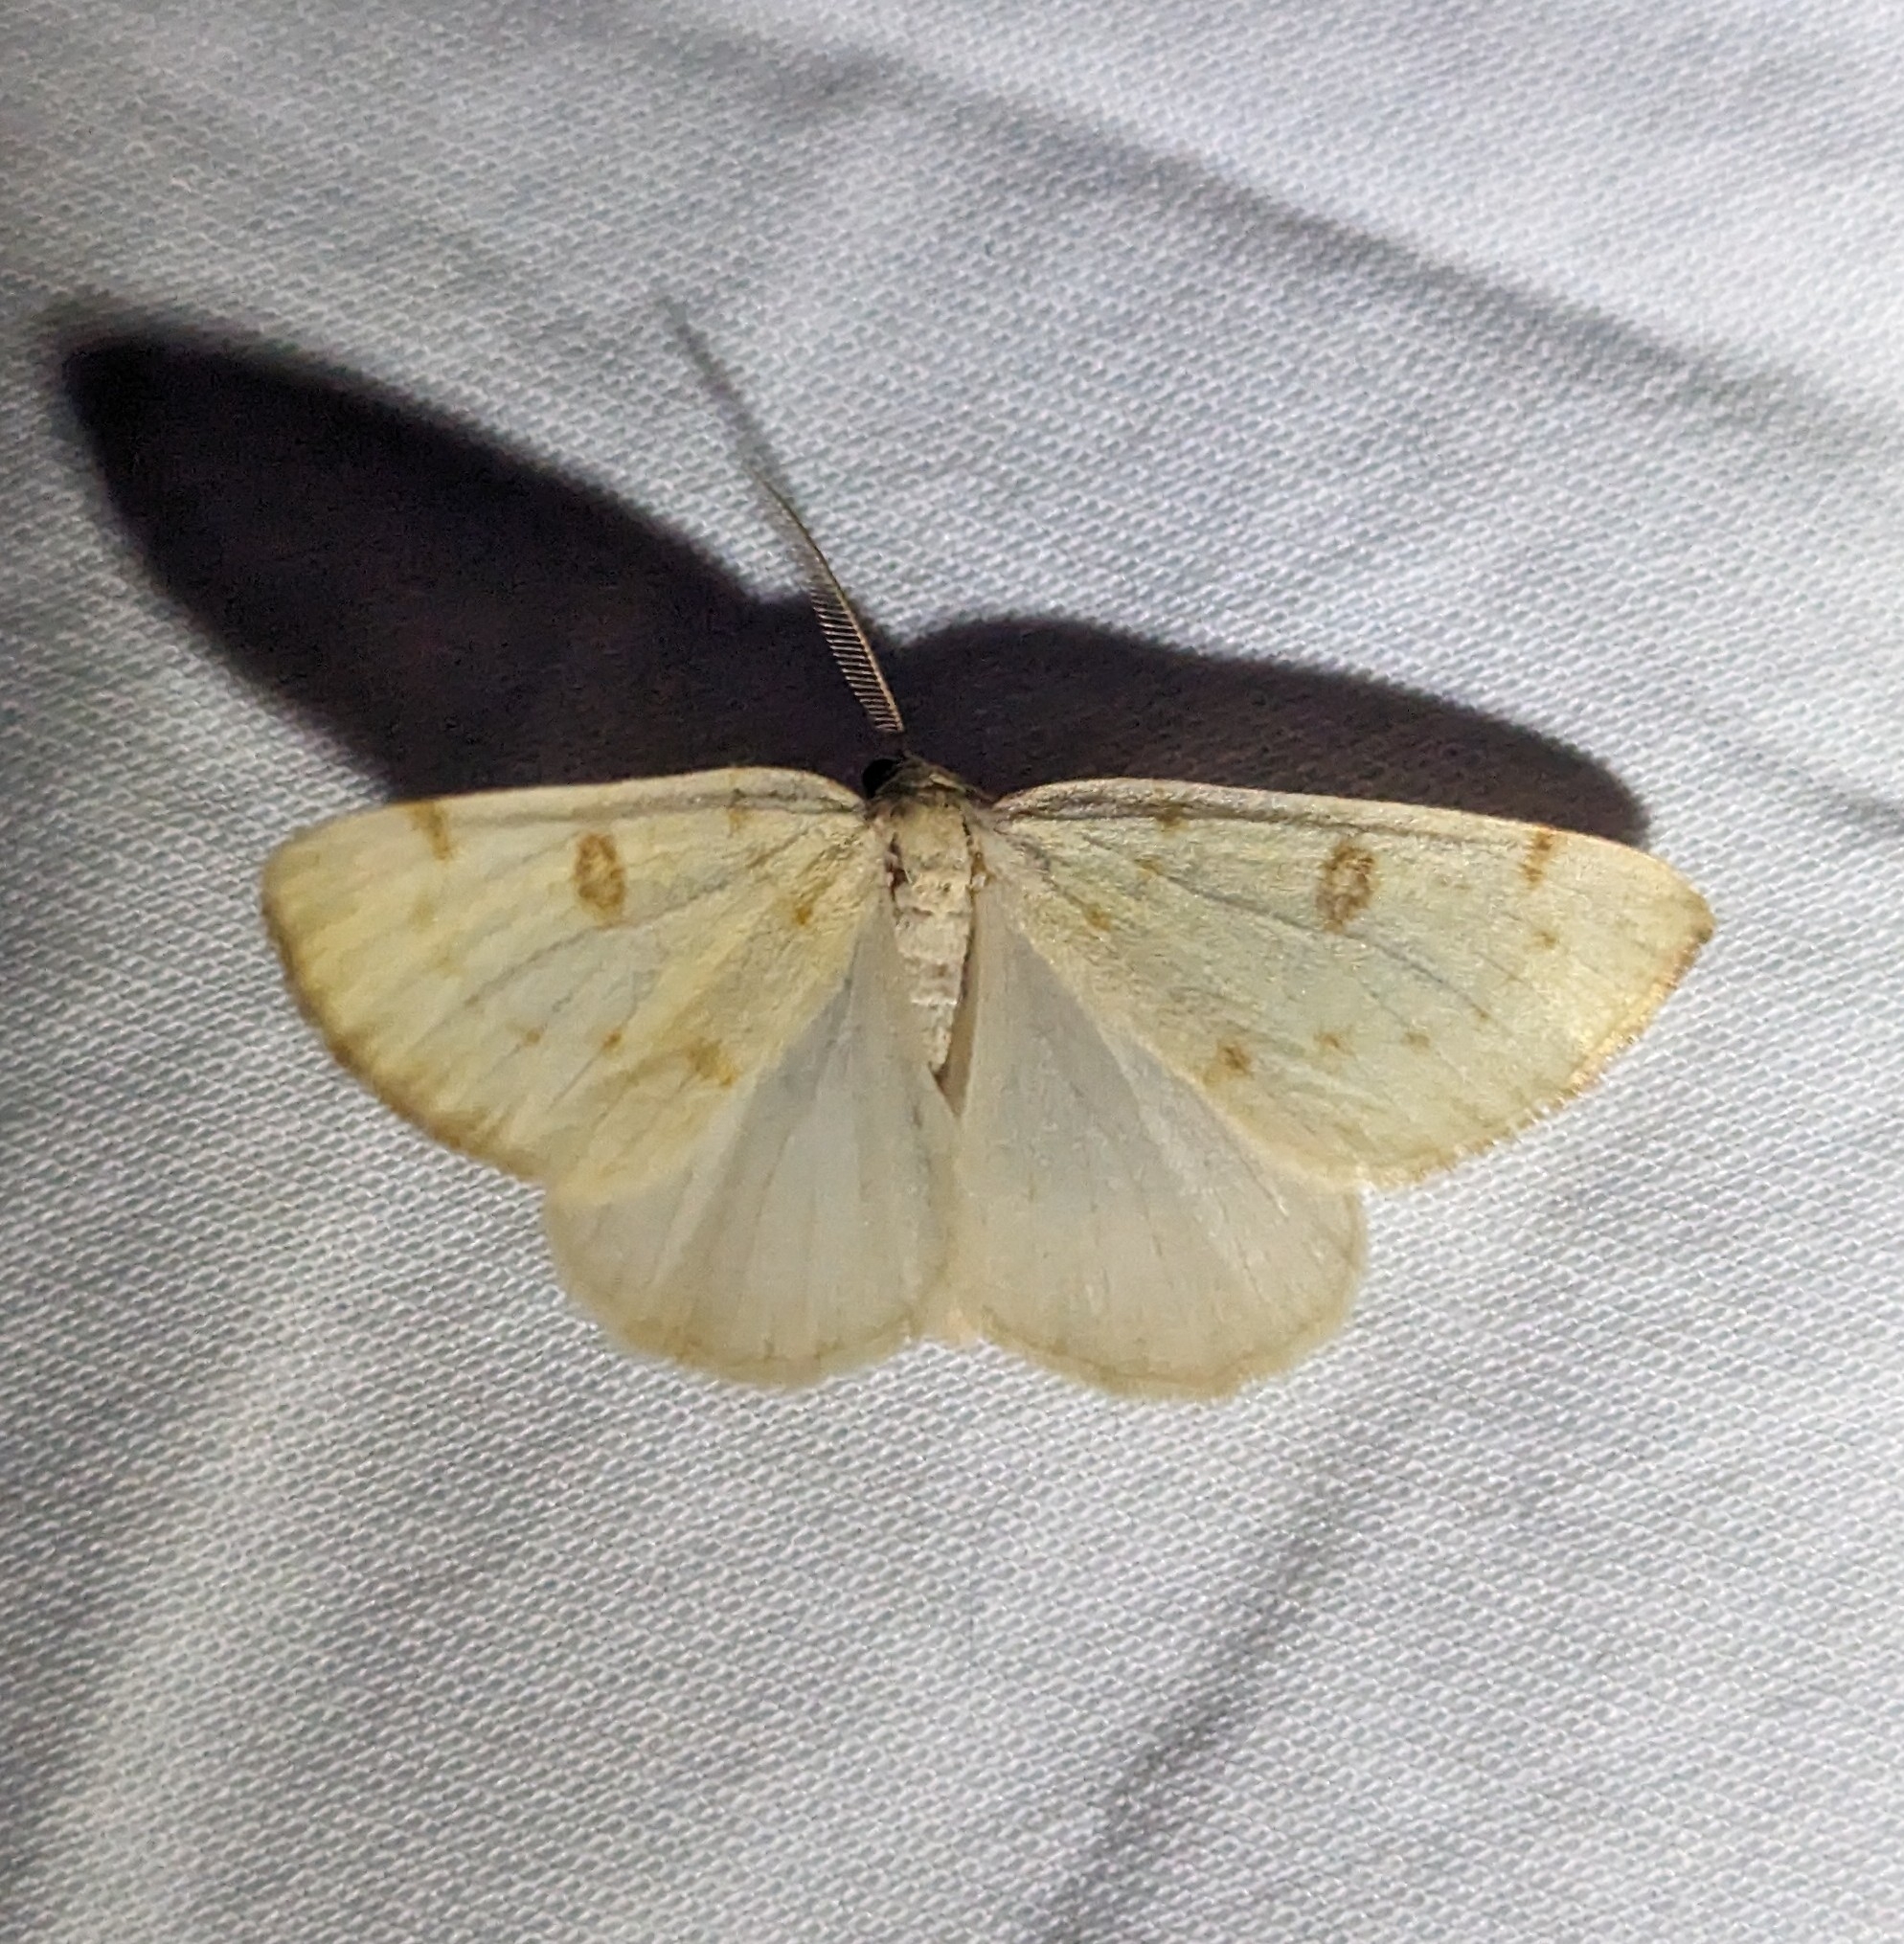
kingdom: Animalia
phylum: Arthropoda
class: Insecta
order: Lepidoptera
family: Geometridae
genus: Hesperumia
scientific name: Hesperumia sulphuraria
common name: Sulphur moth
